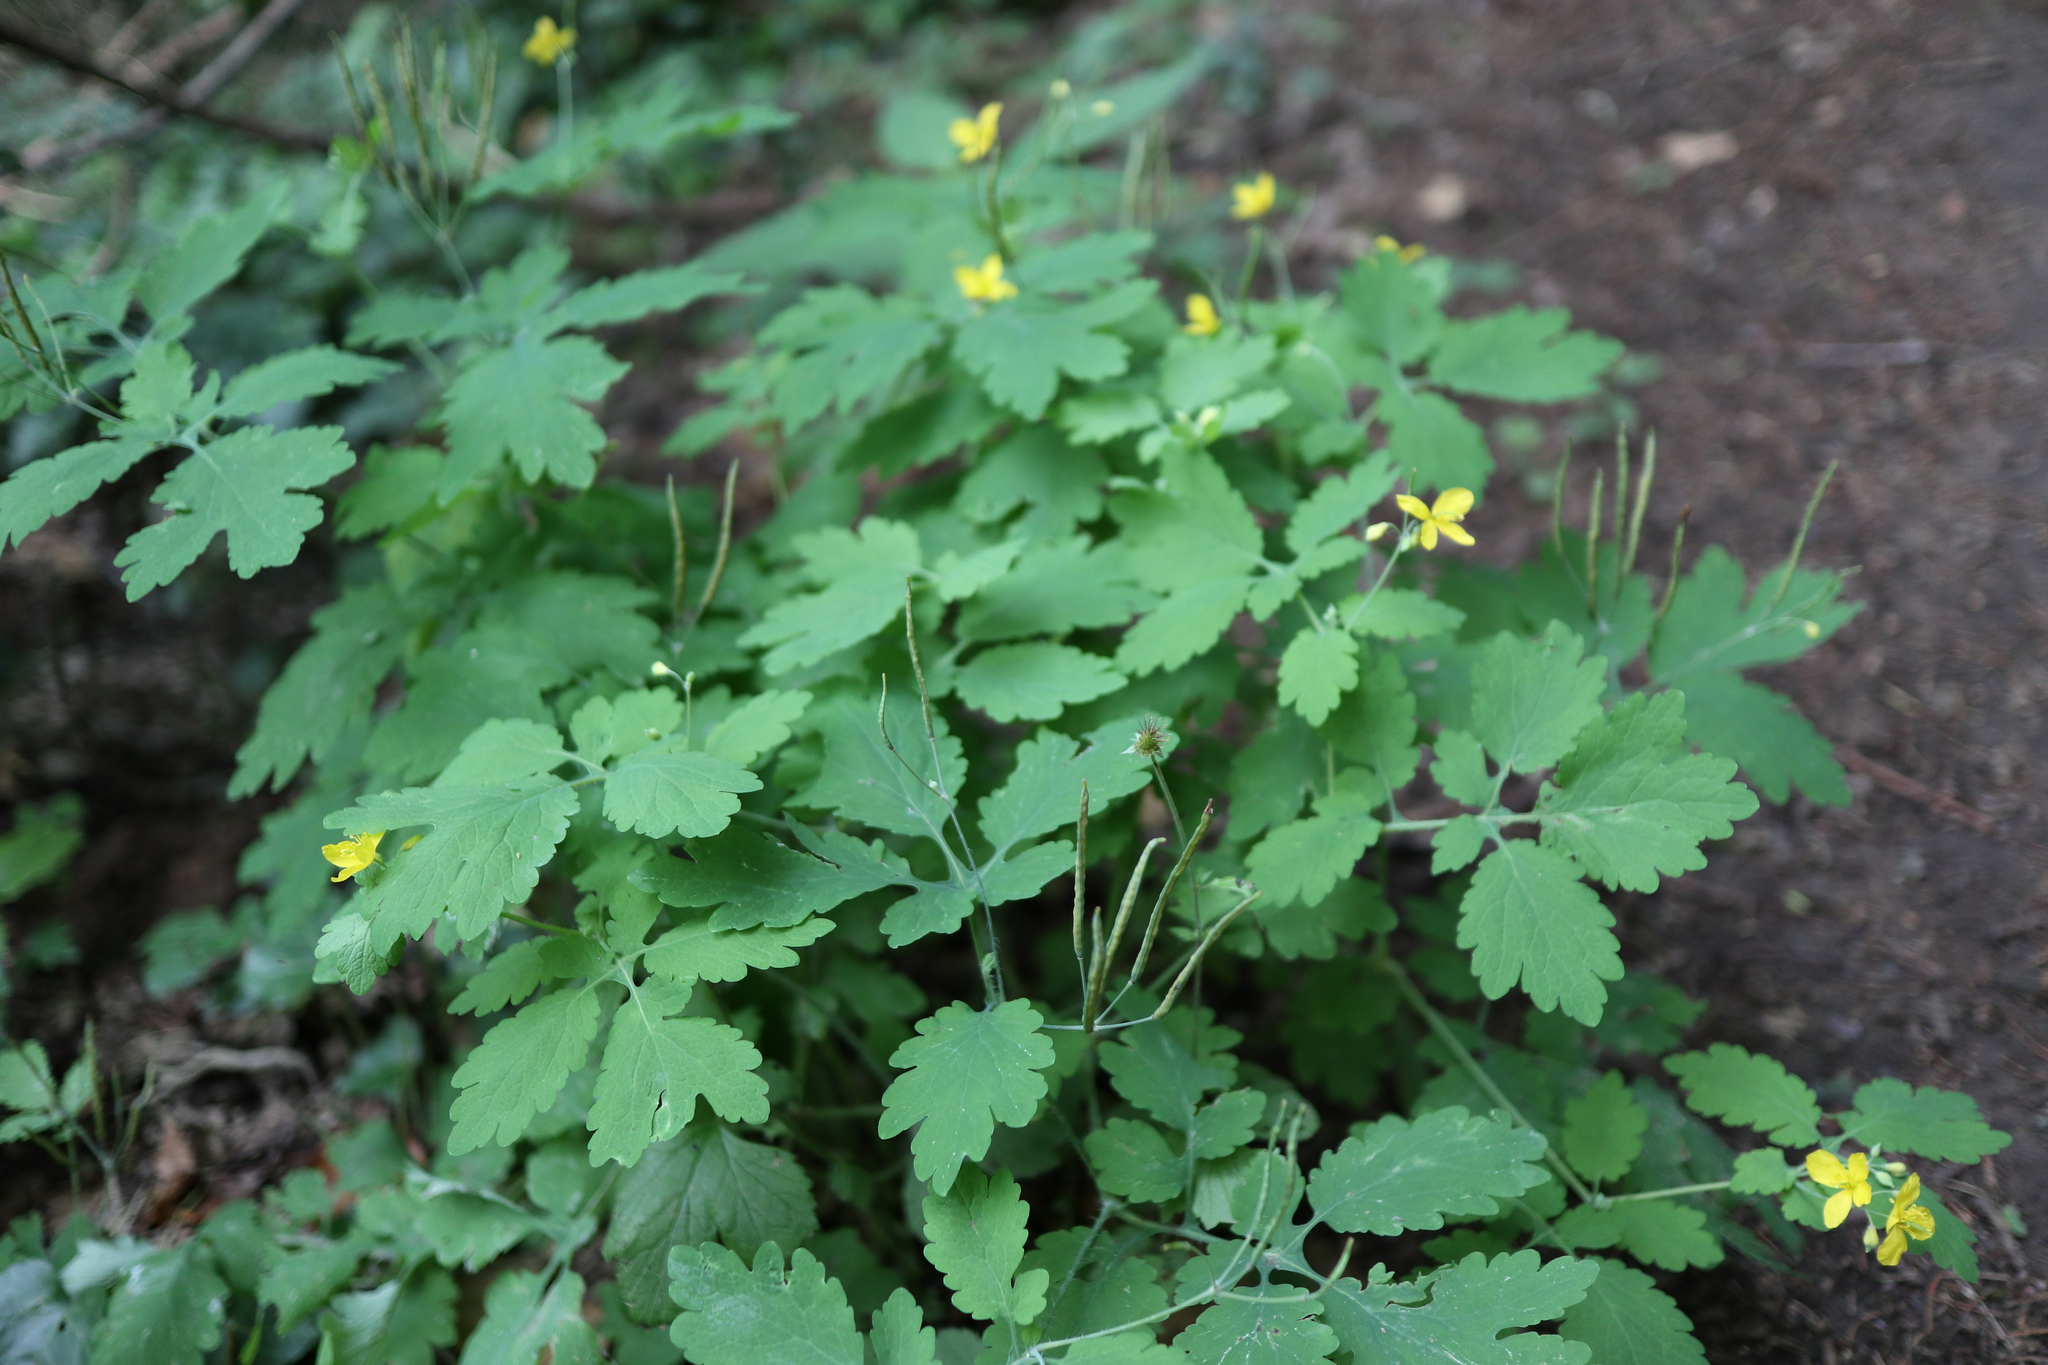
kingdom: Plantae
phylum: Tracheophyta
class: Magnoliopsida
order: Ranunculales
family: Papaveraceae
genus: Chelidonium
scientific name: Chelidonium majus
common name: Greater celandine
